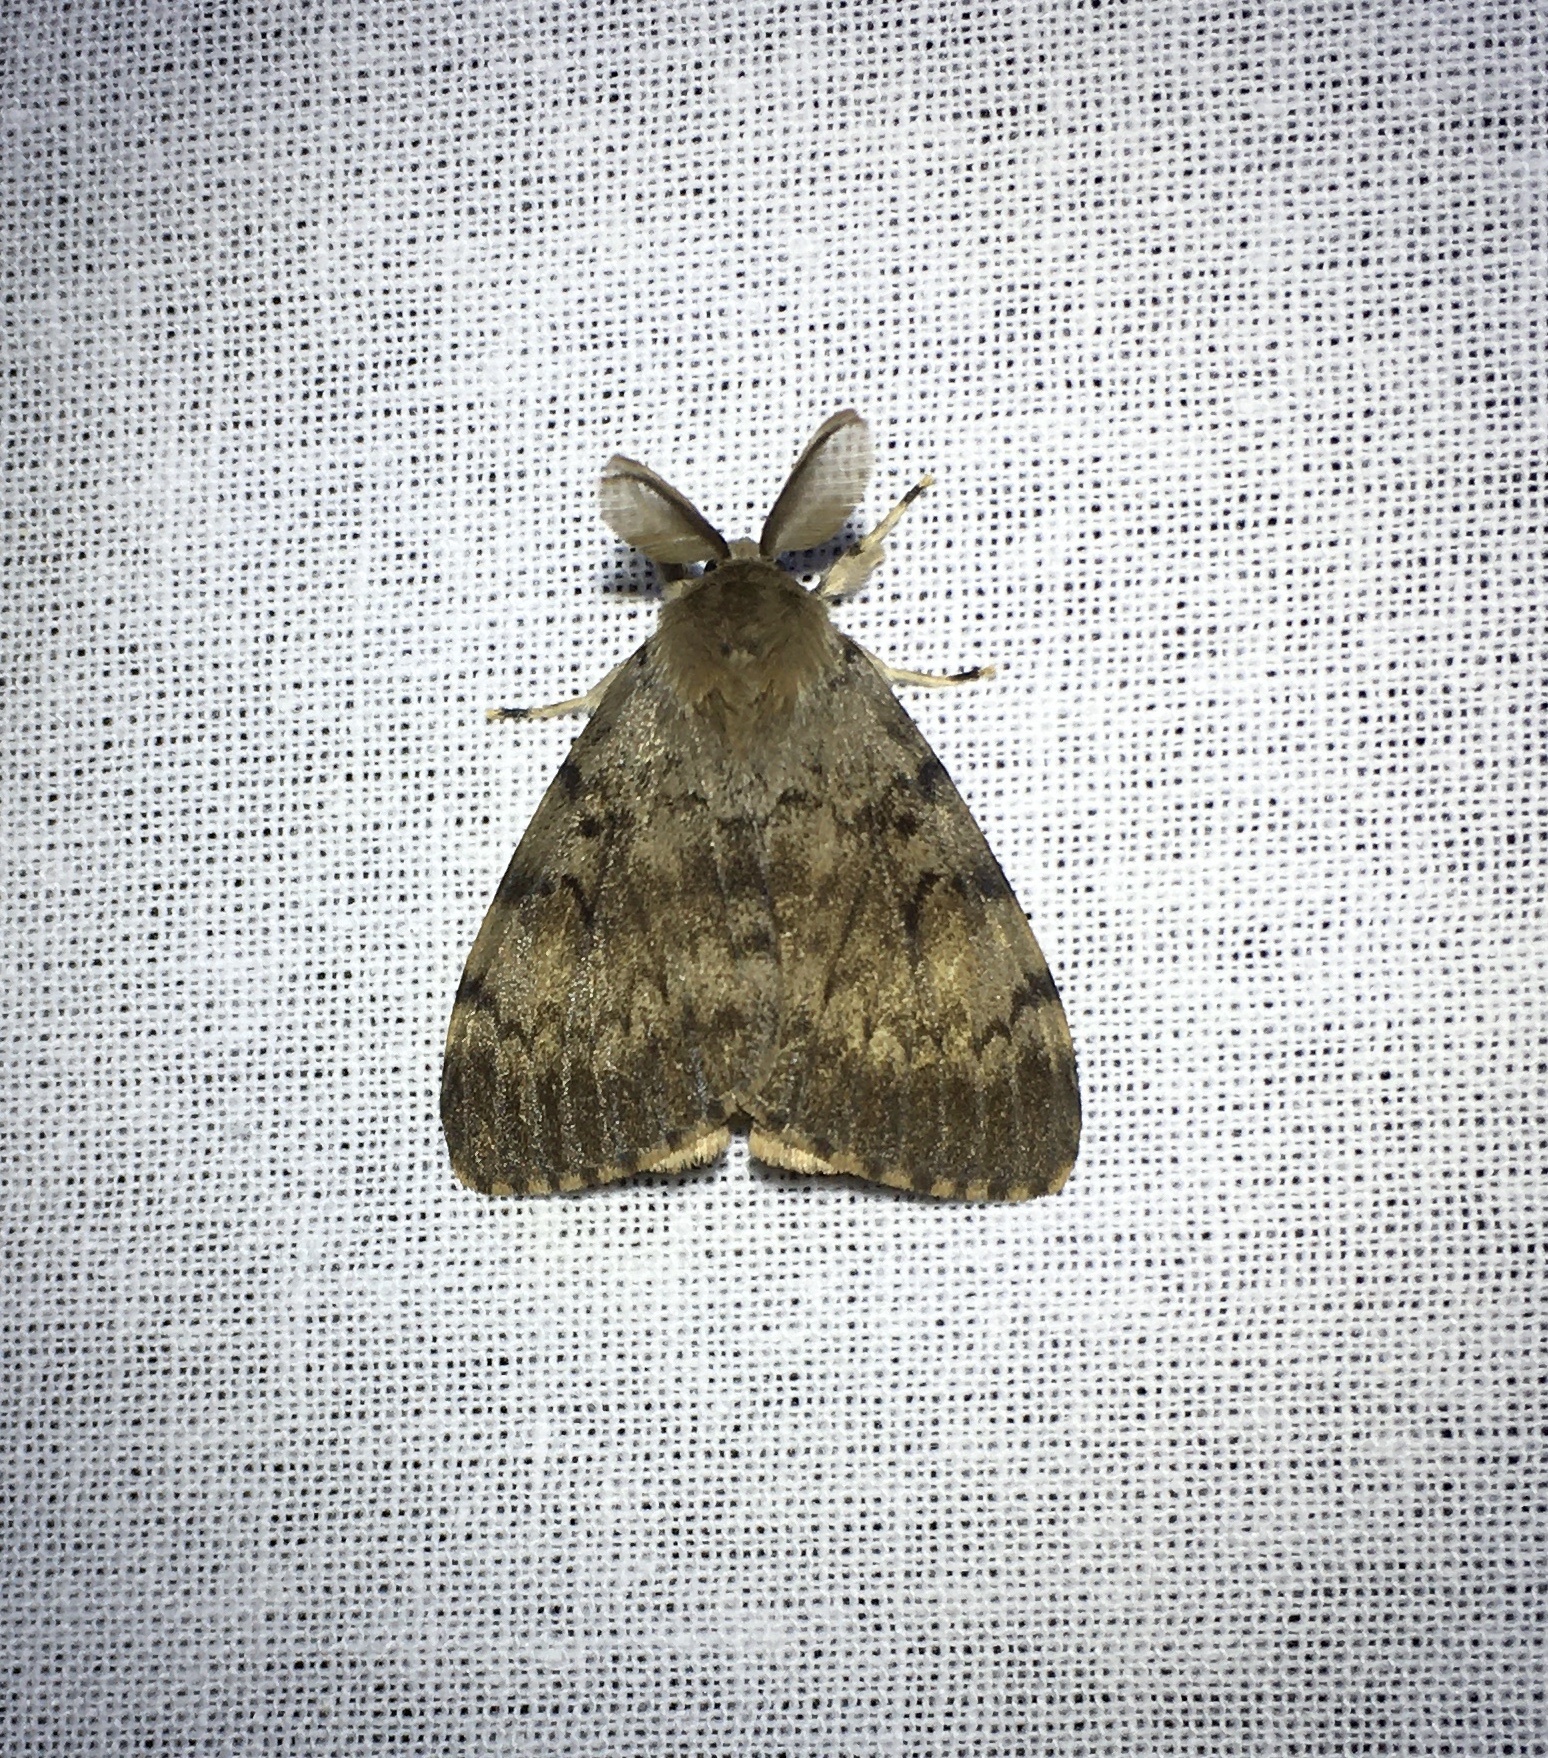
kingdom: Animalia
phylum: Arthropoda
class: Insecta
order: Lepidoptera
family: Erebidae
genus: Lymantria
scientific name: Lymantria dispar
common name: Gypsy moth
